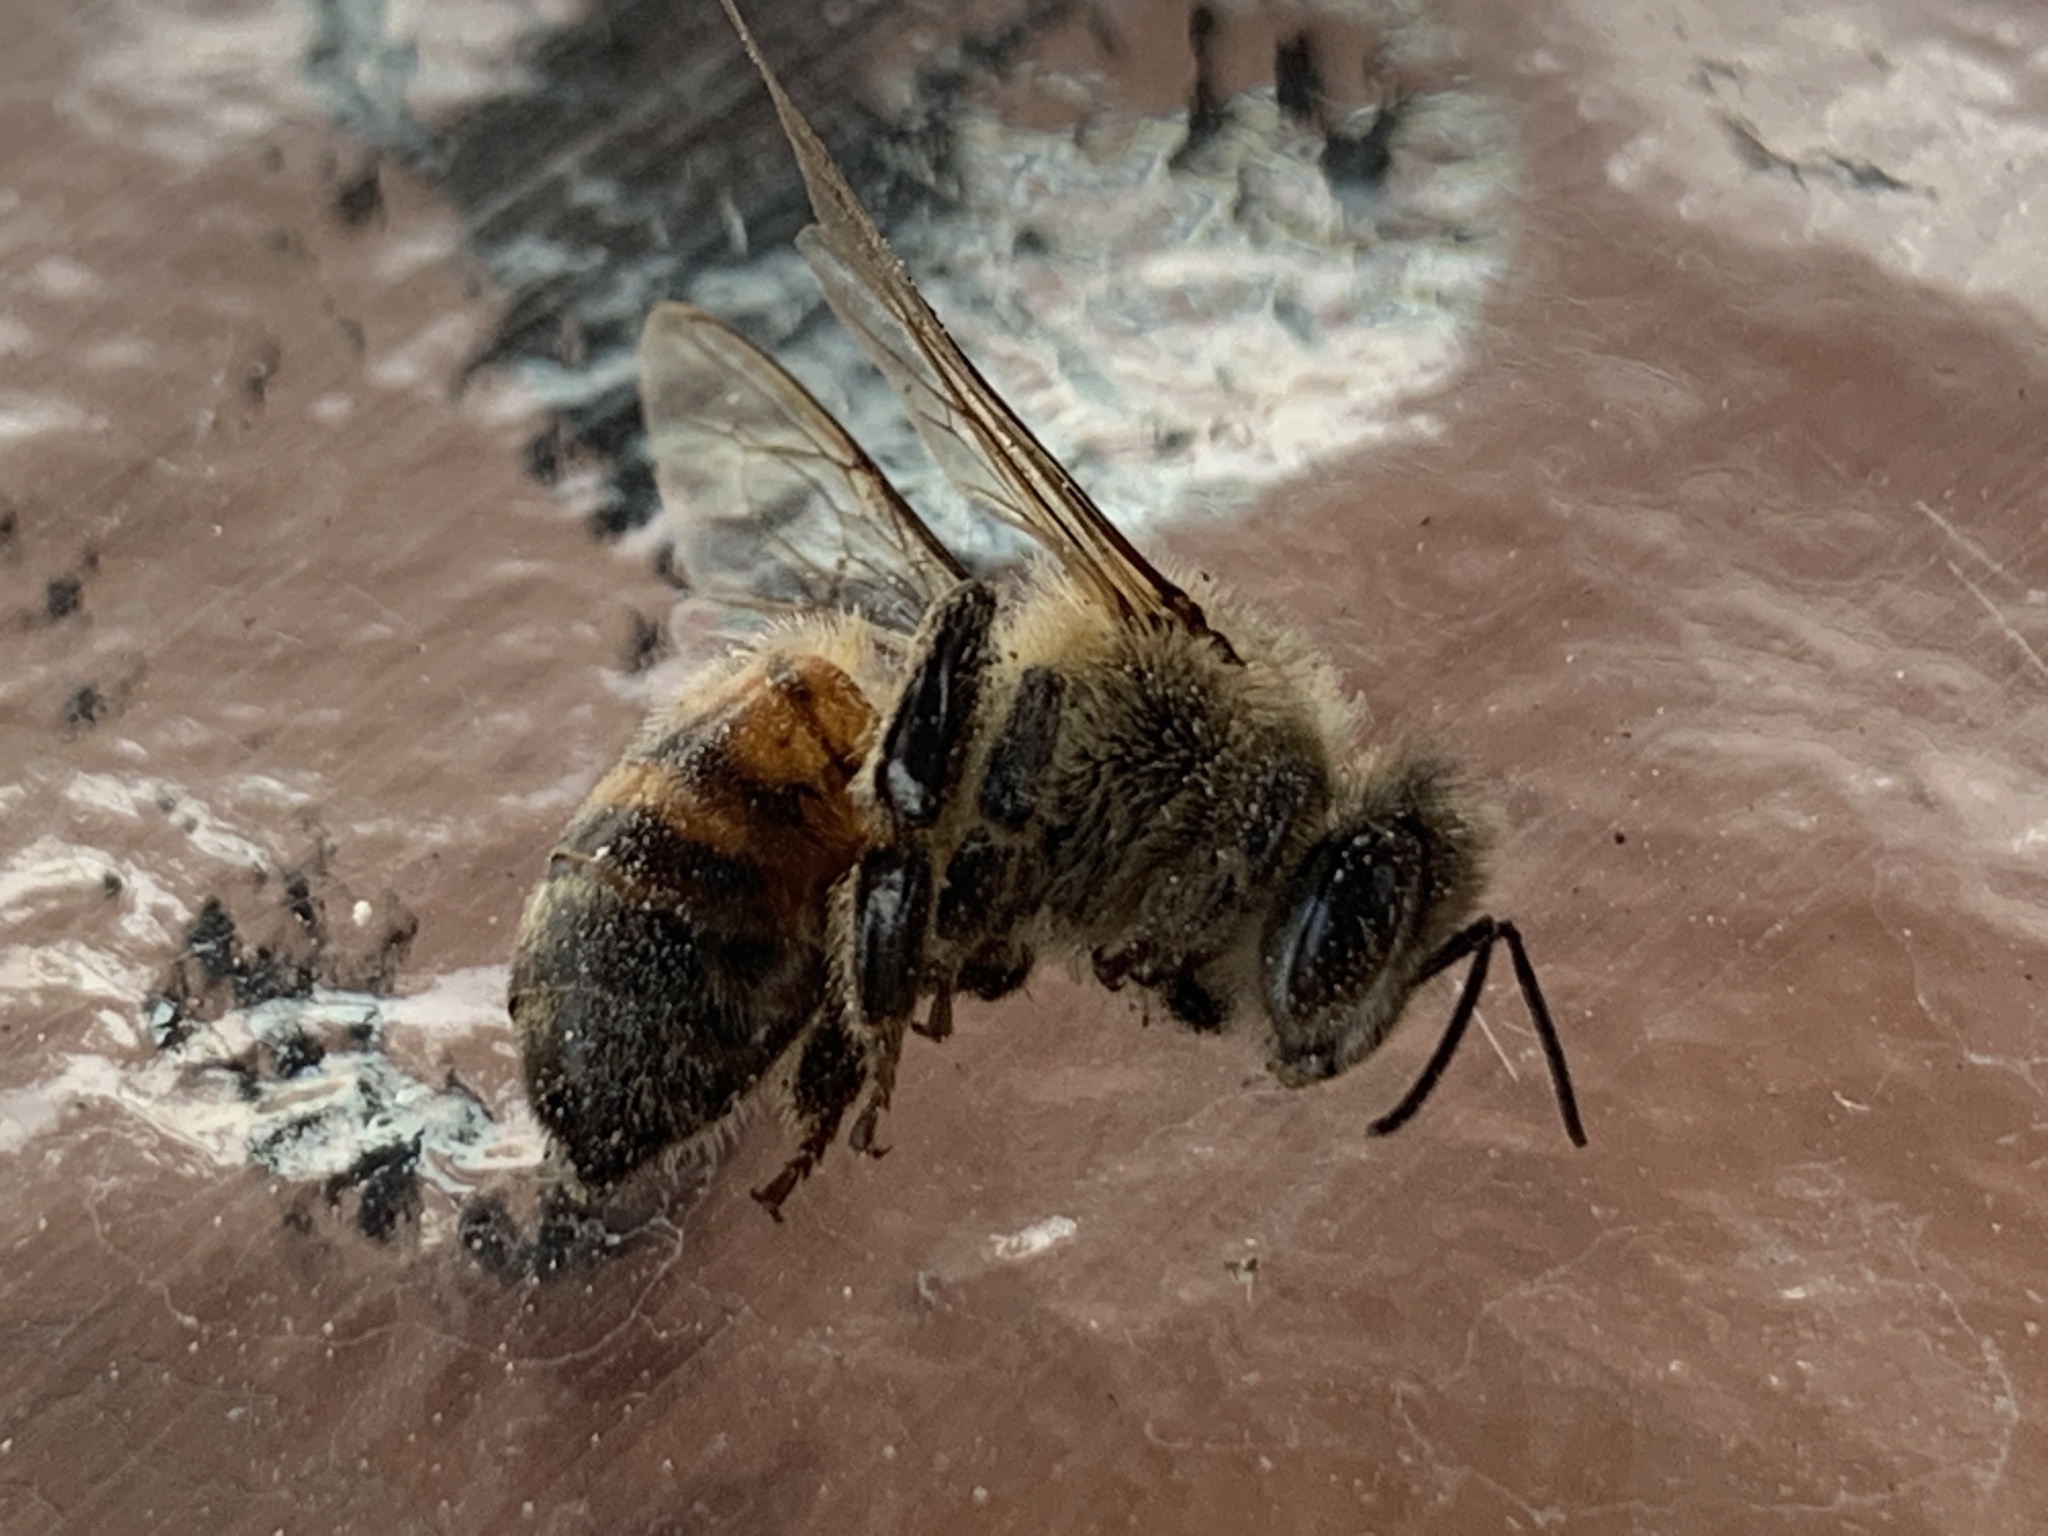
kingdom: Animalia
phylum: Arthropoda
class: Insecta
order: Hymenoptera
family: Apidae
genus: Apis
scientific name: Apis mellifera
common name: Honey bee
